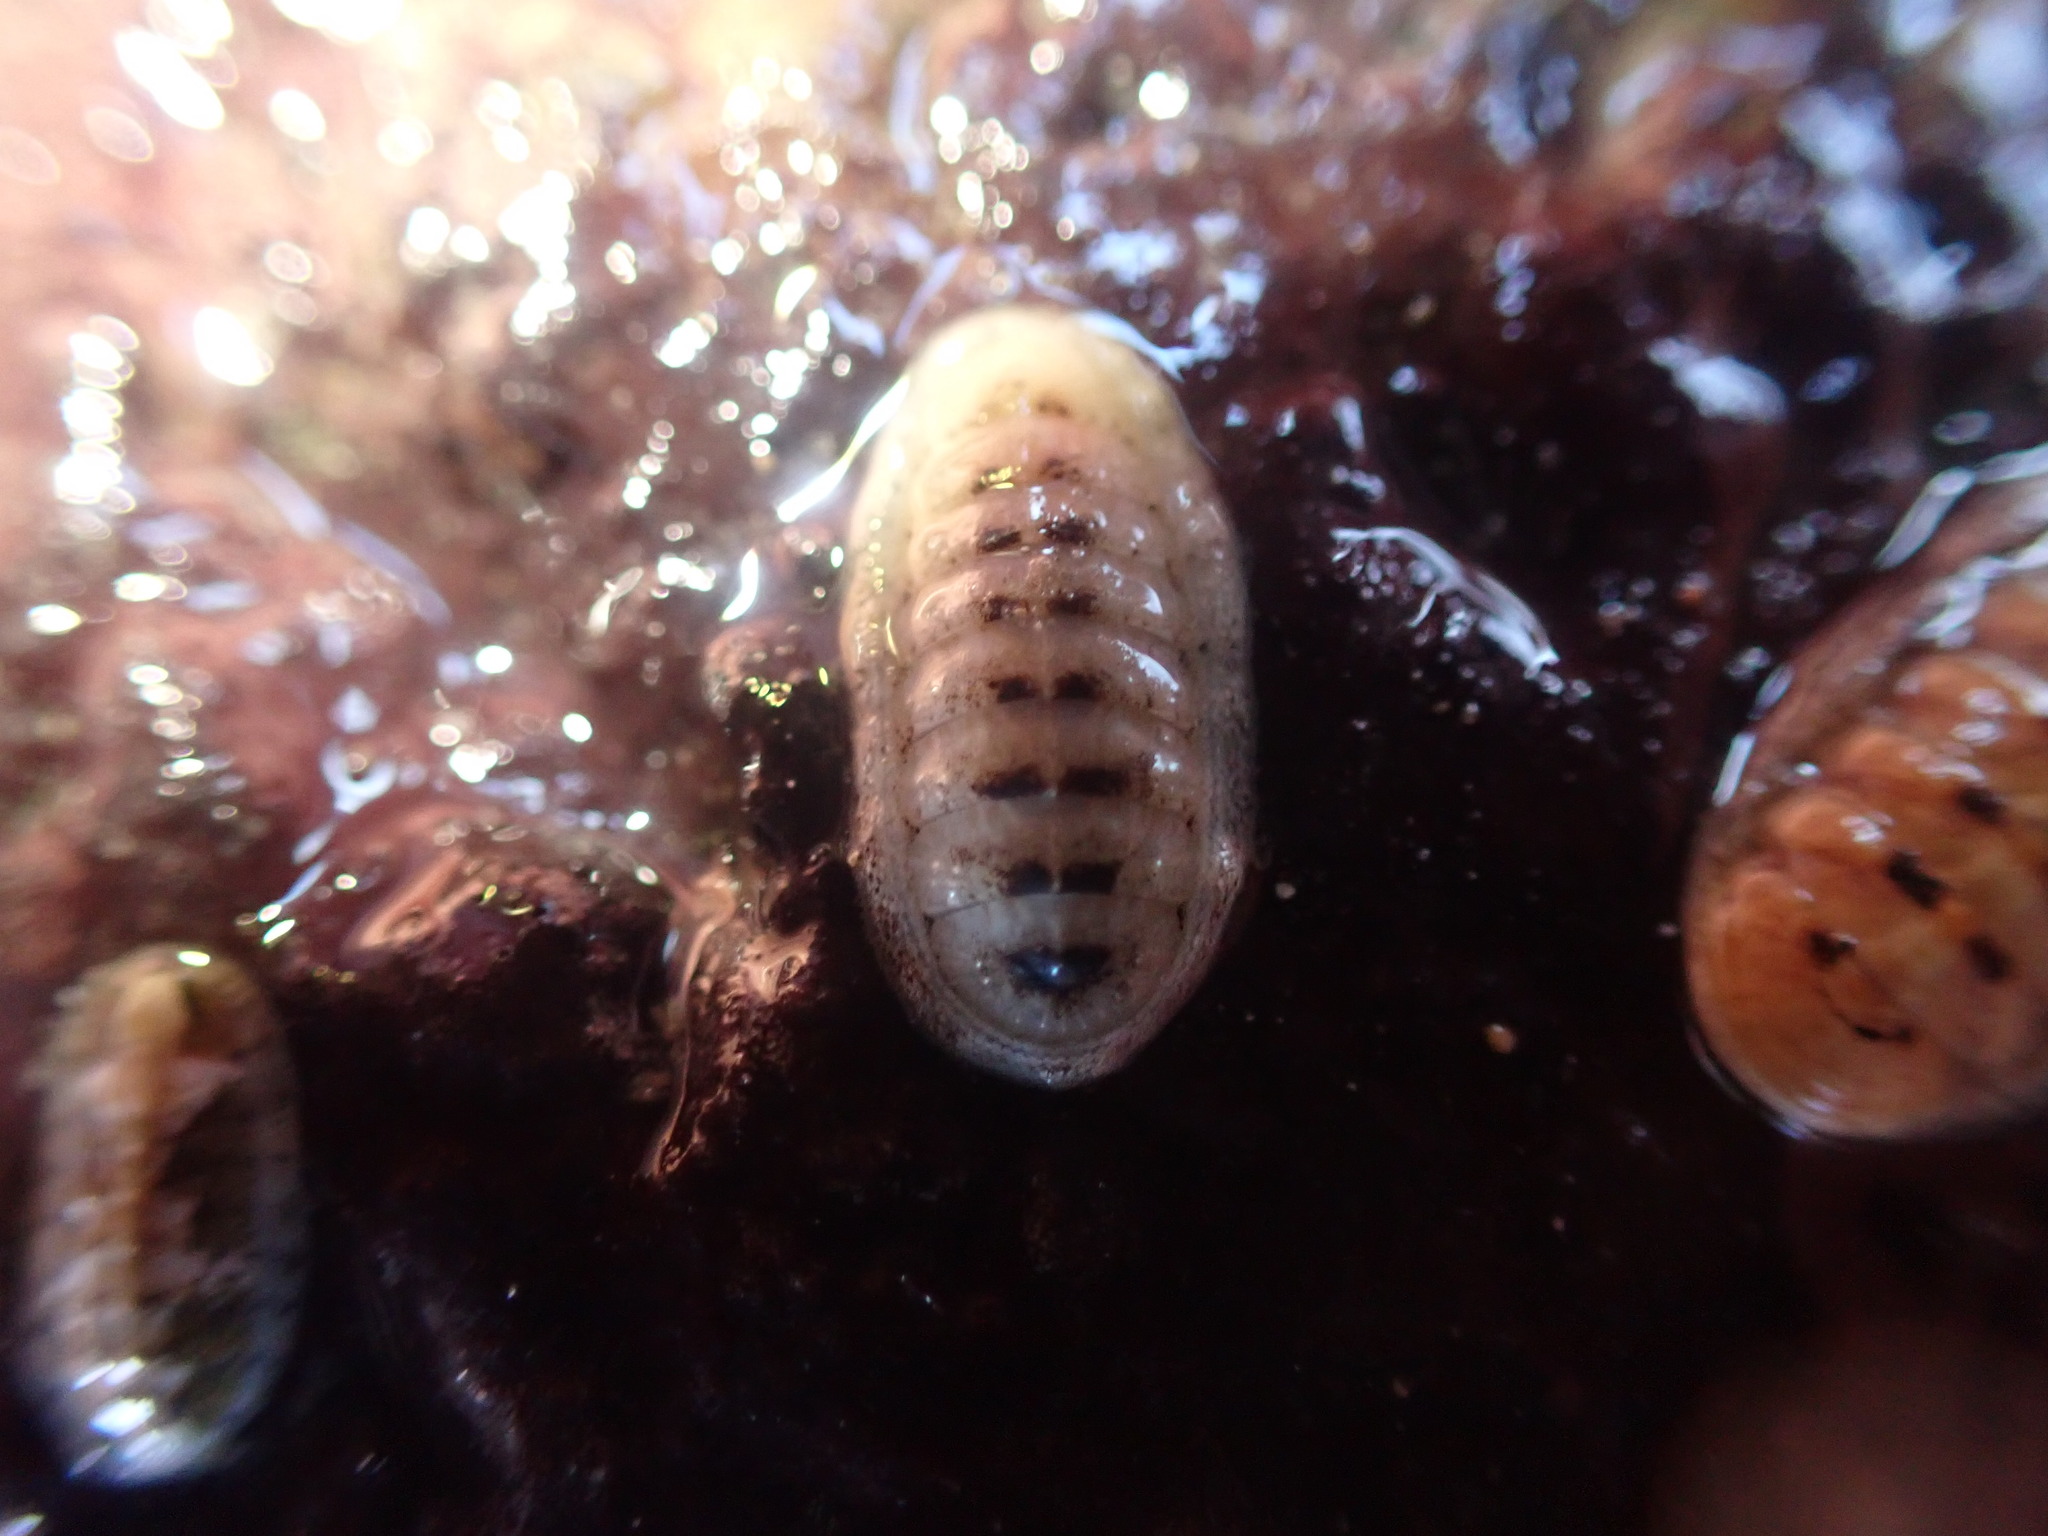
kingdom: Animalia
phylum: Mollusca
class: Polyplacophora
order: Lepidopleurida
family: Leptochitonidae
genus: Leptochiton
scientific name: Leptochiton inquinatus
